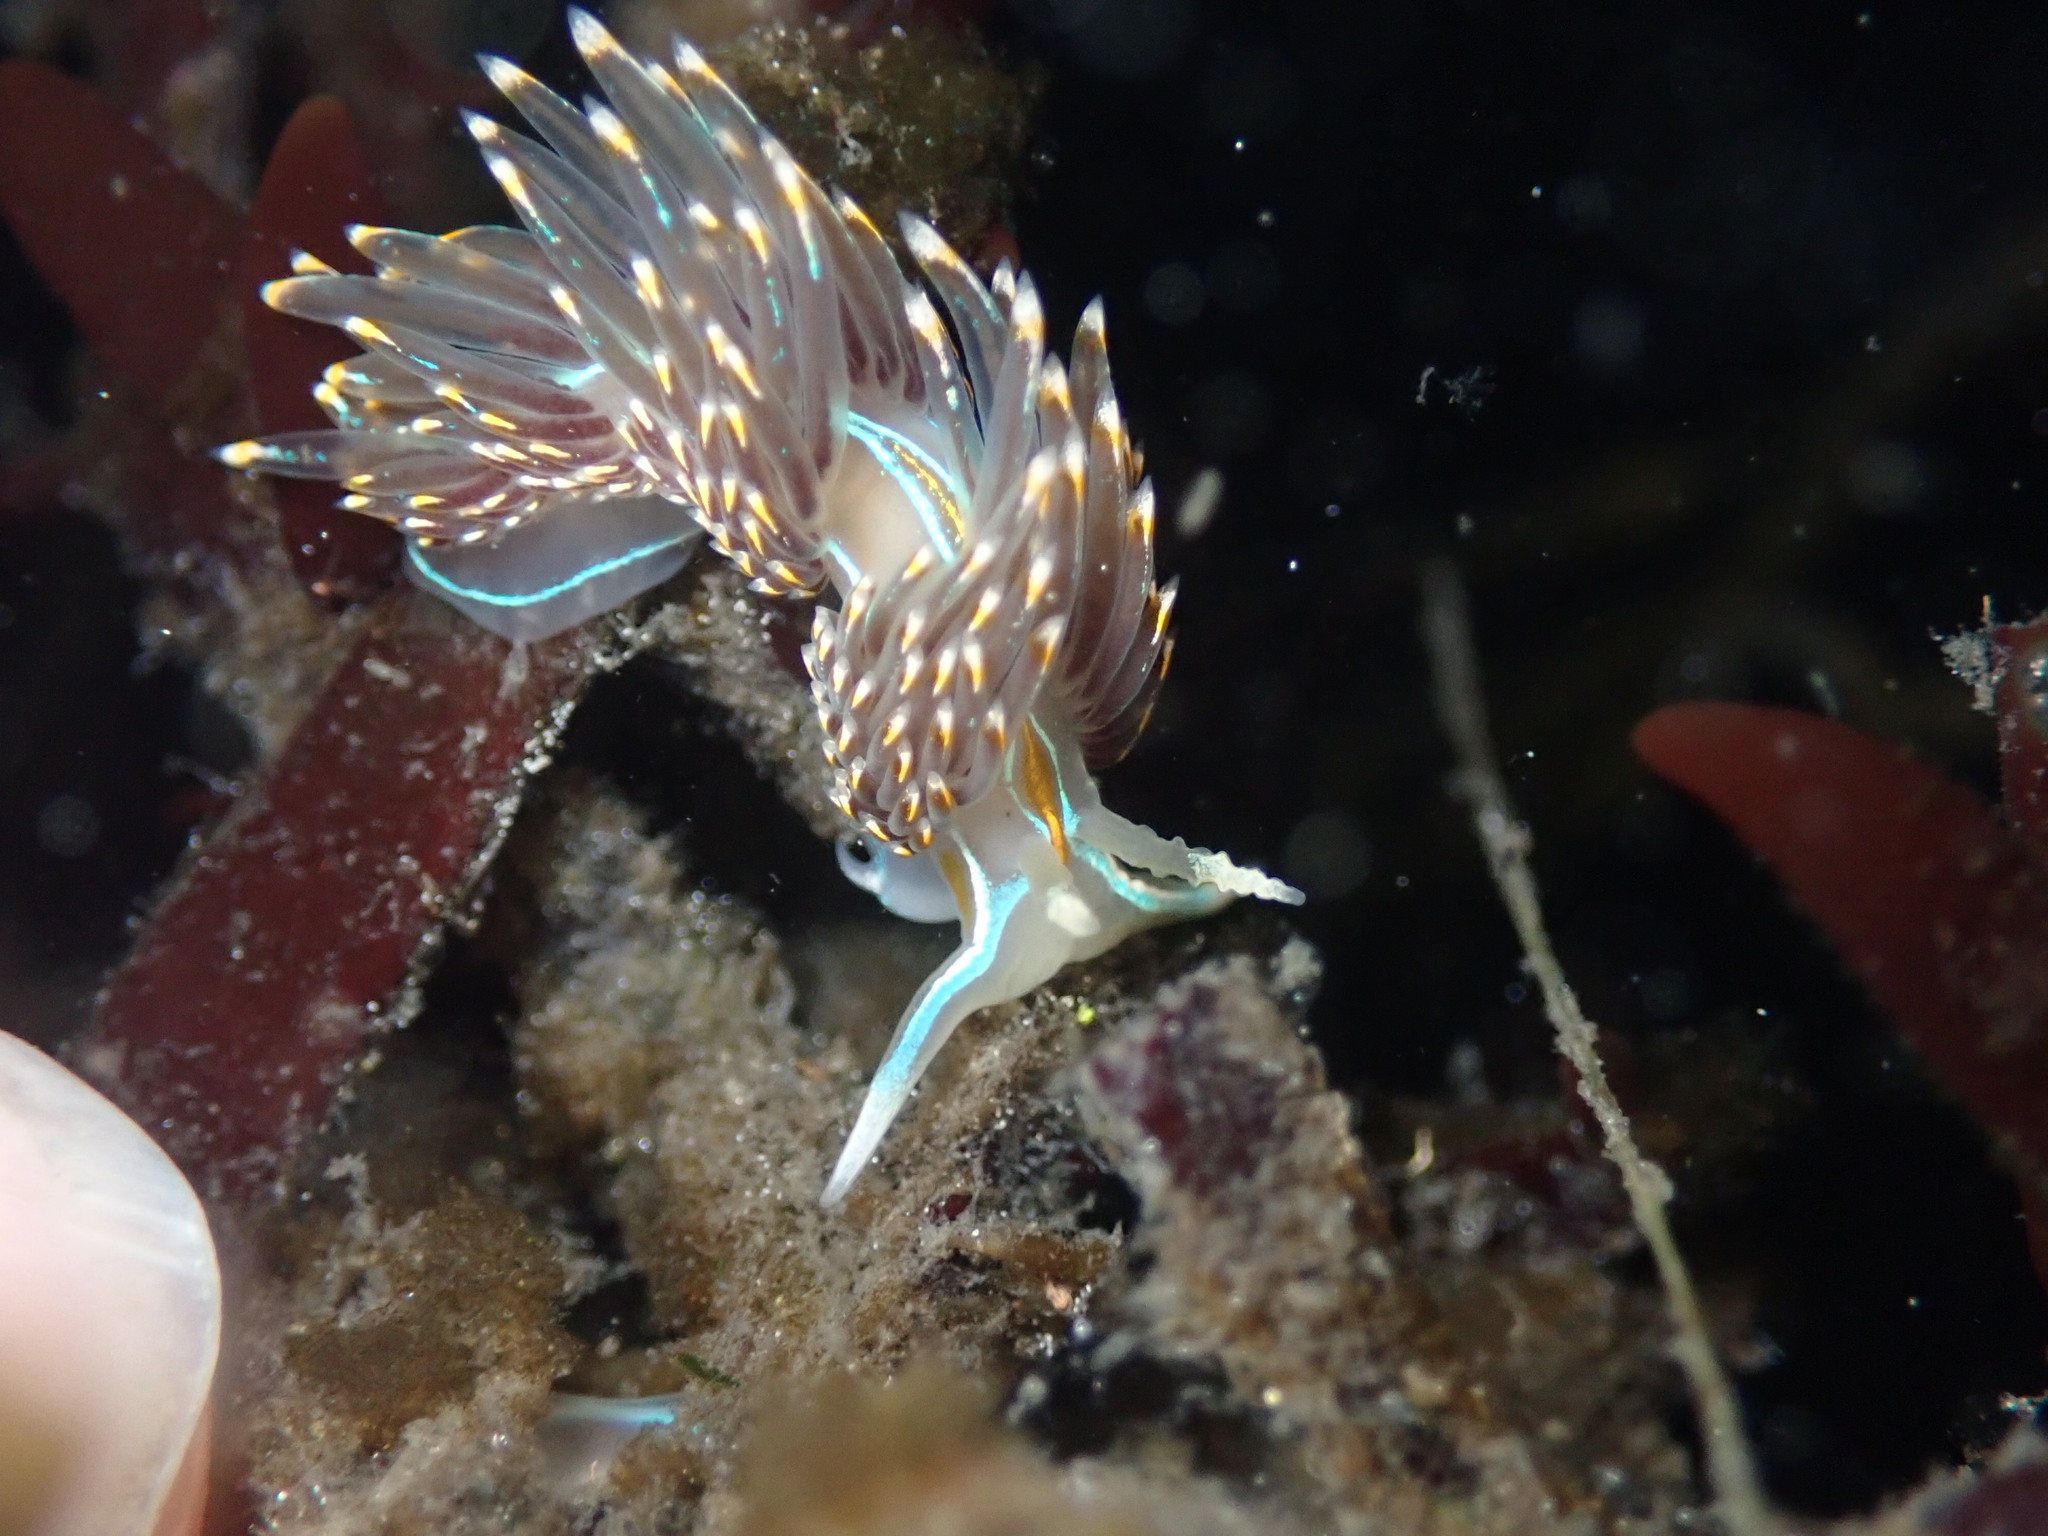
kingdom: Animalia
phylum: Mollusca
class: Gastropoda
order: Nudibranchia
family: Myrrhinidae
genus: Hermissenda
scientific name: Hermissenda opalescens
